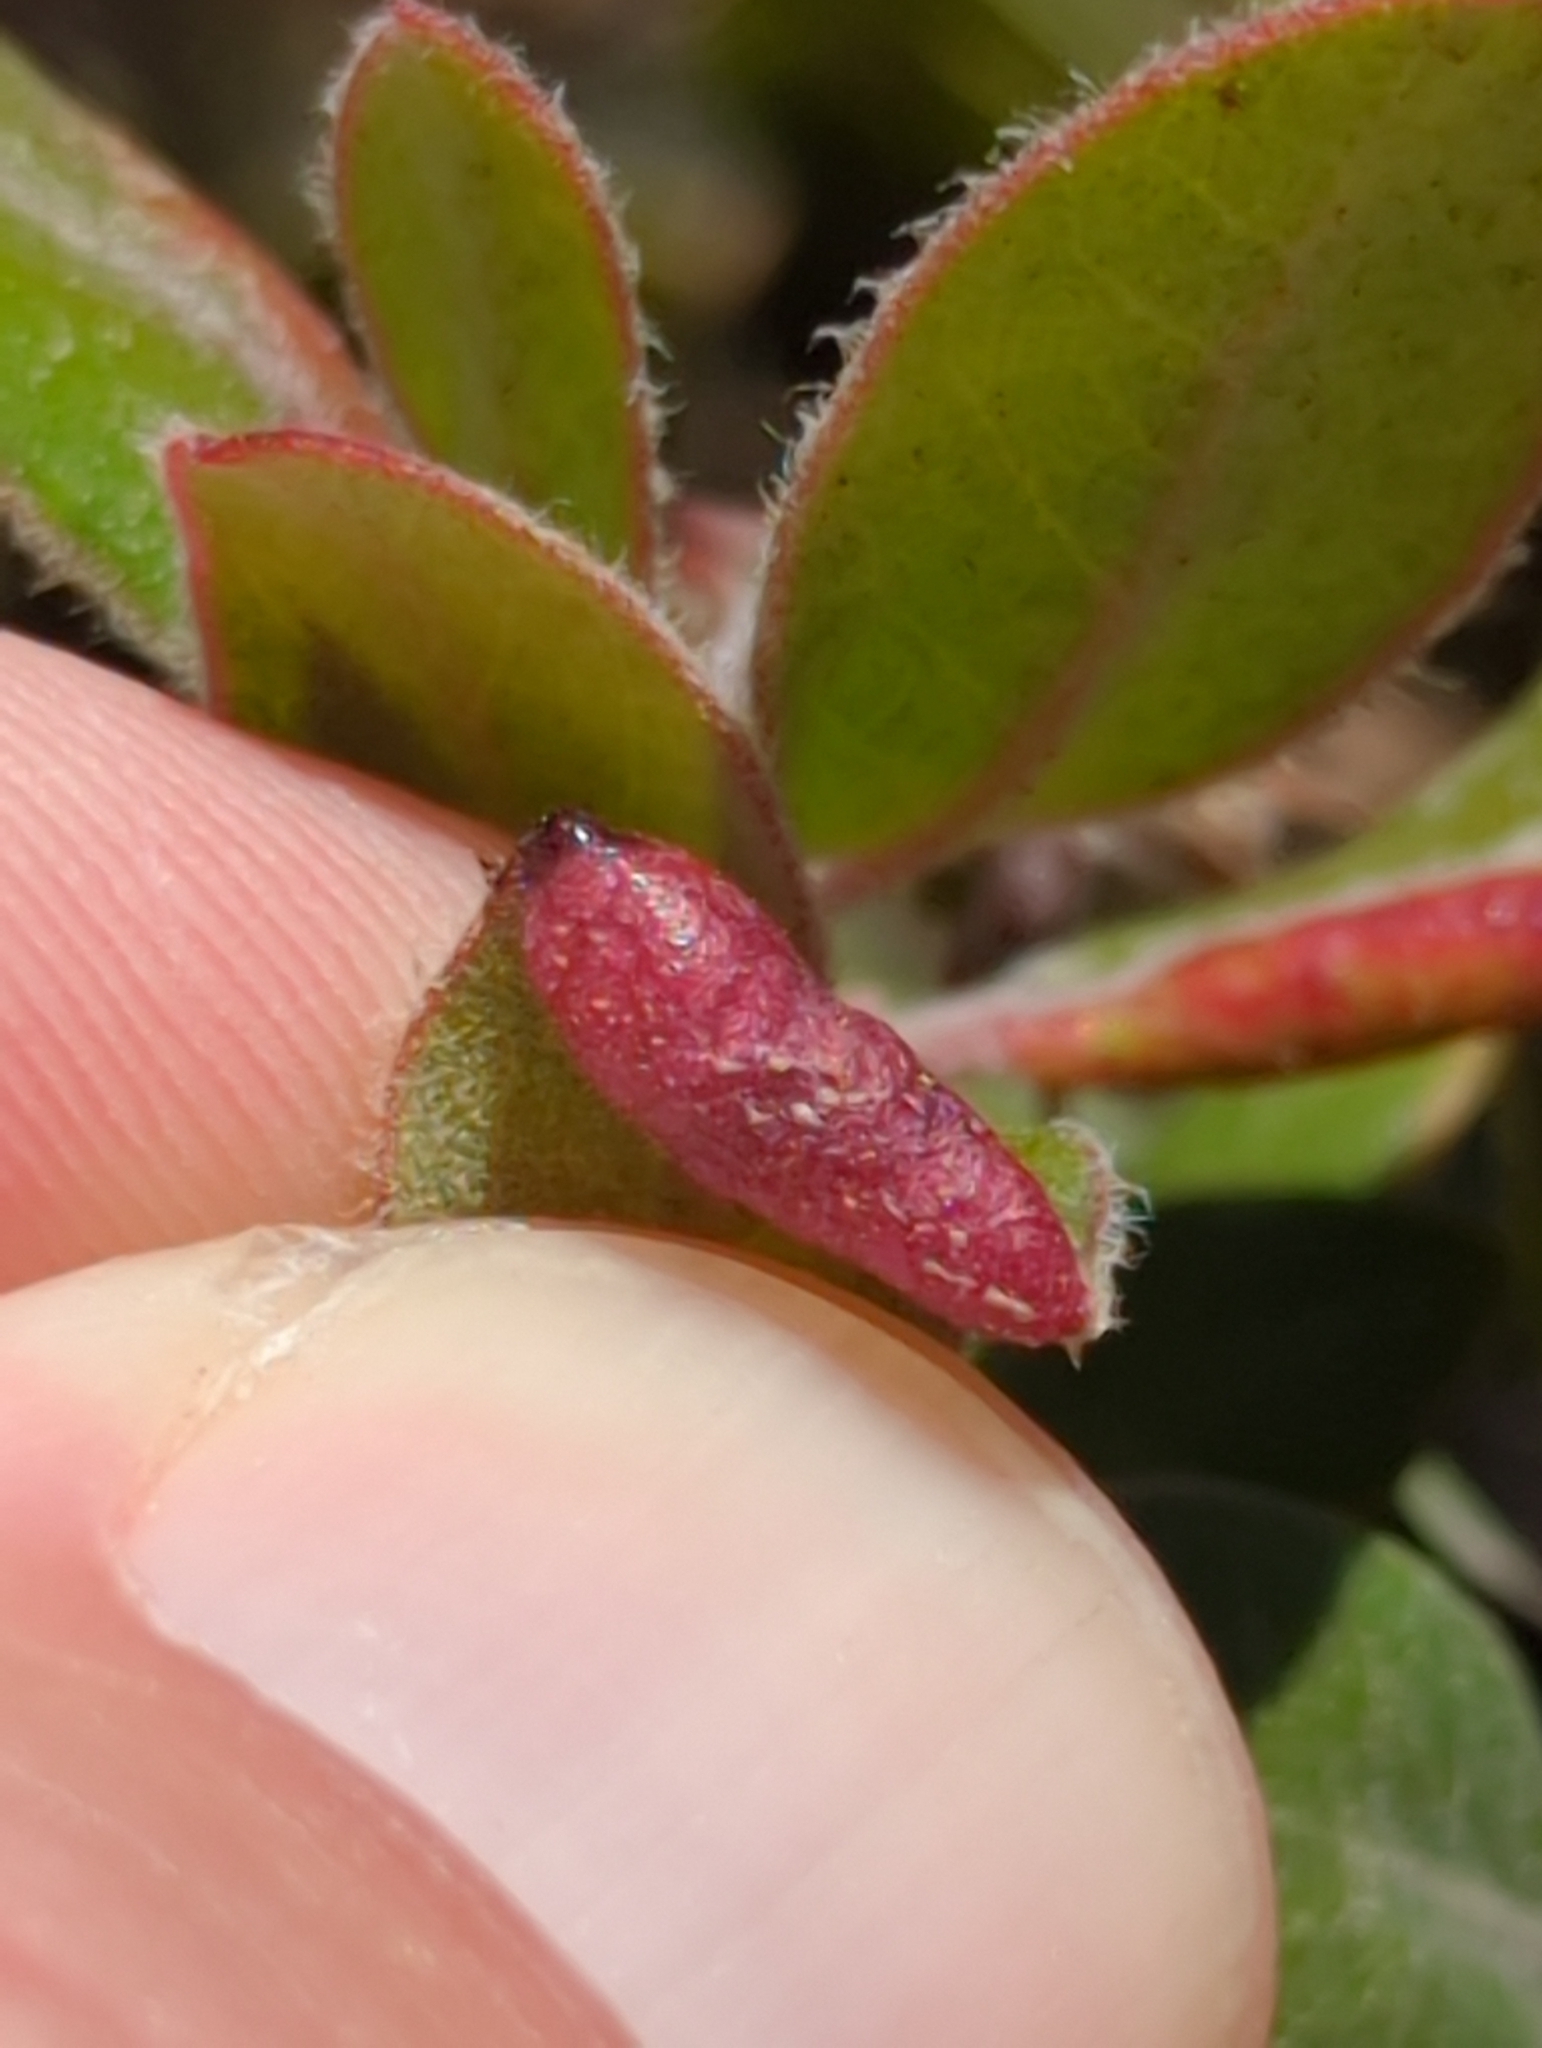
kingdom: Animalia
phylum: Arthropoda
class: Insecta
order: Hemiptera
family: Aphididae
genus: Tamalia
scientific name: Tamalia coweni
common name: Manzanita leafgall aphid
